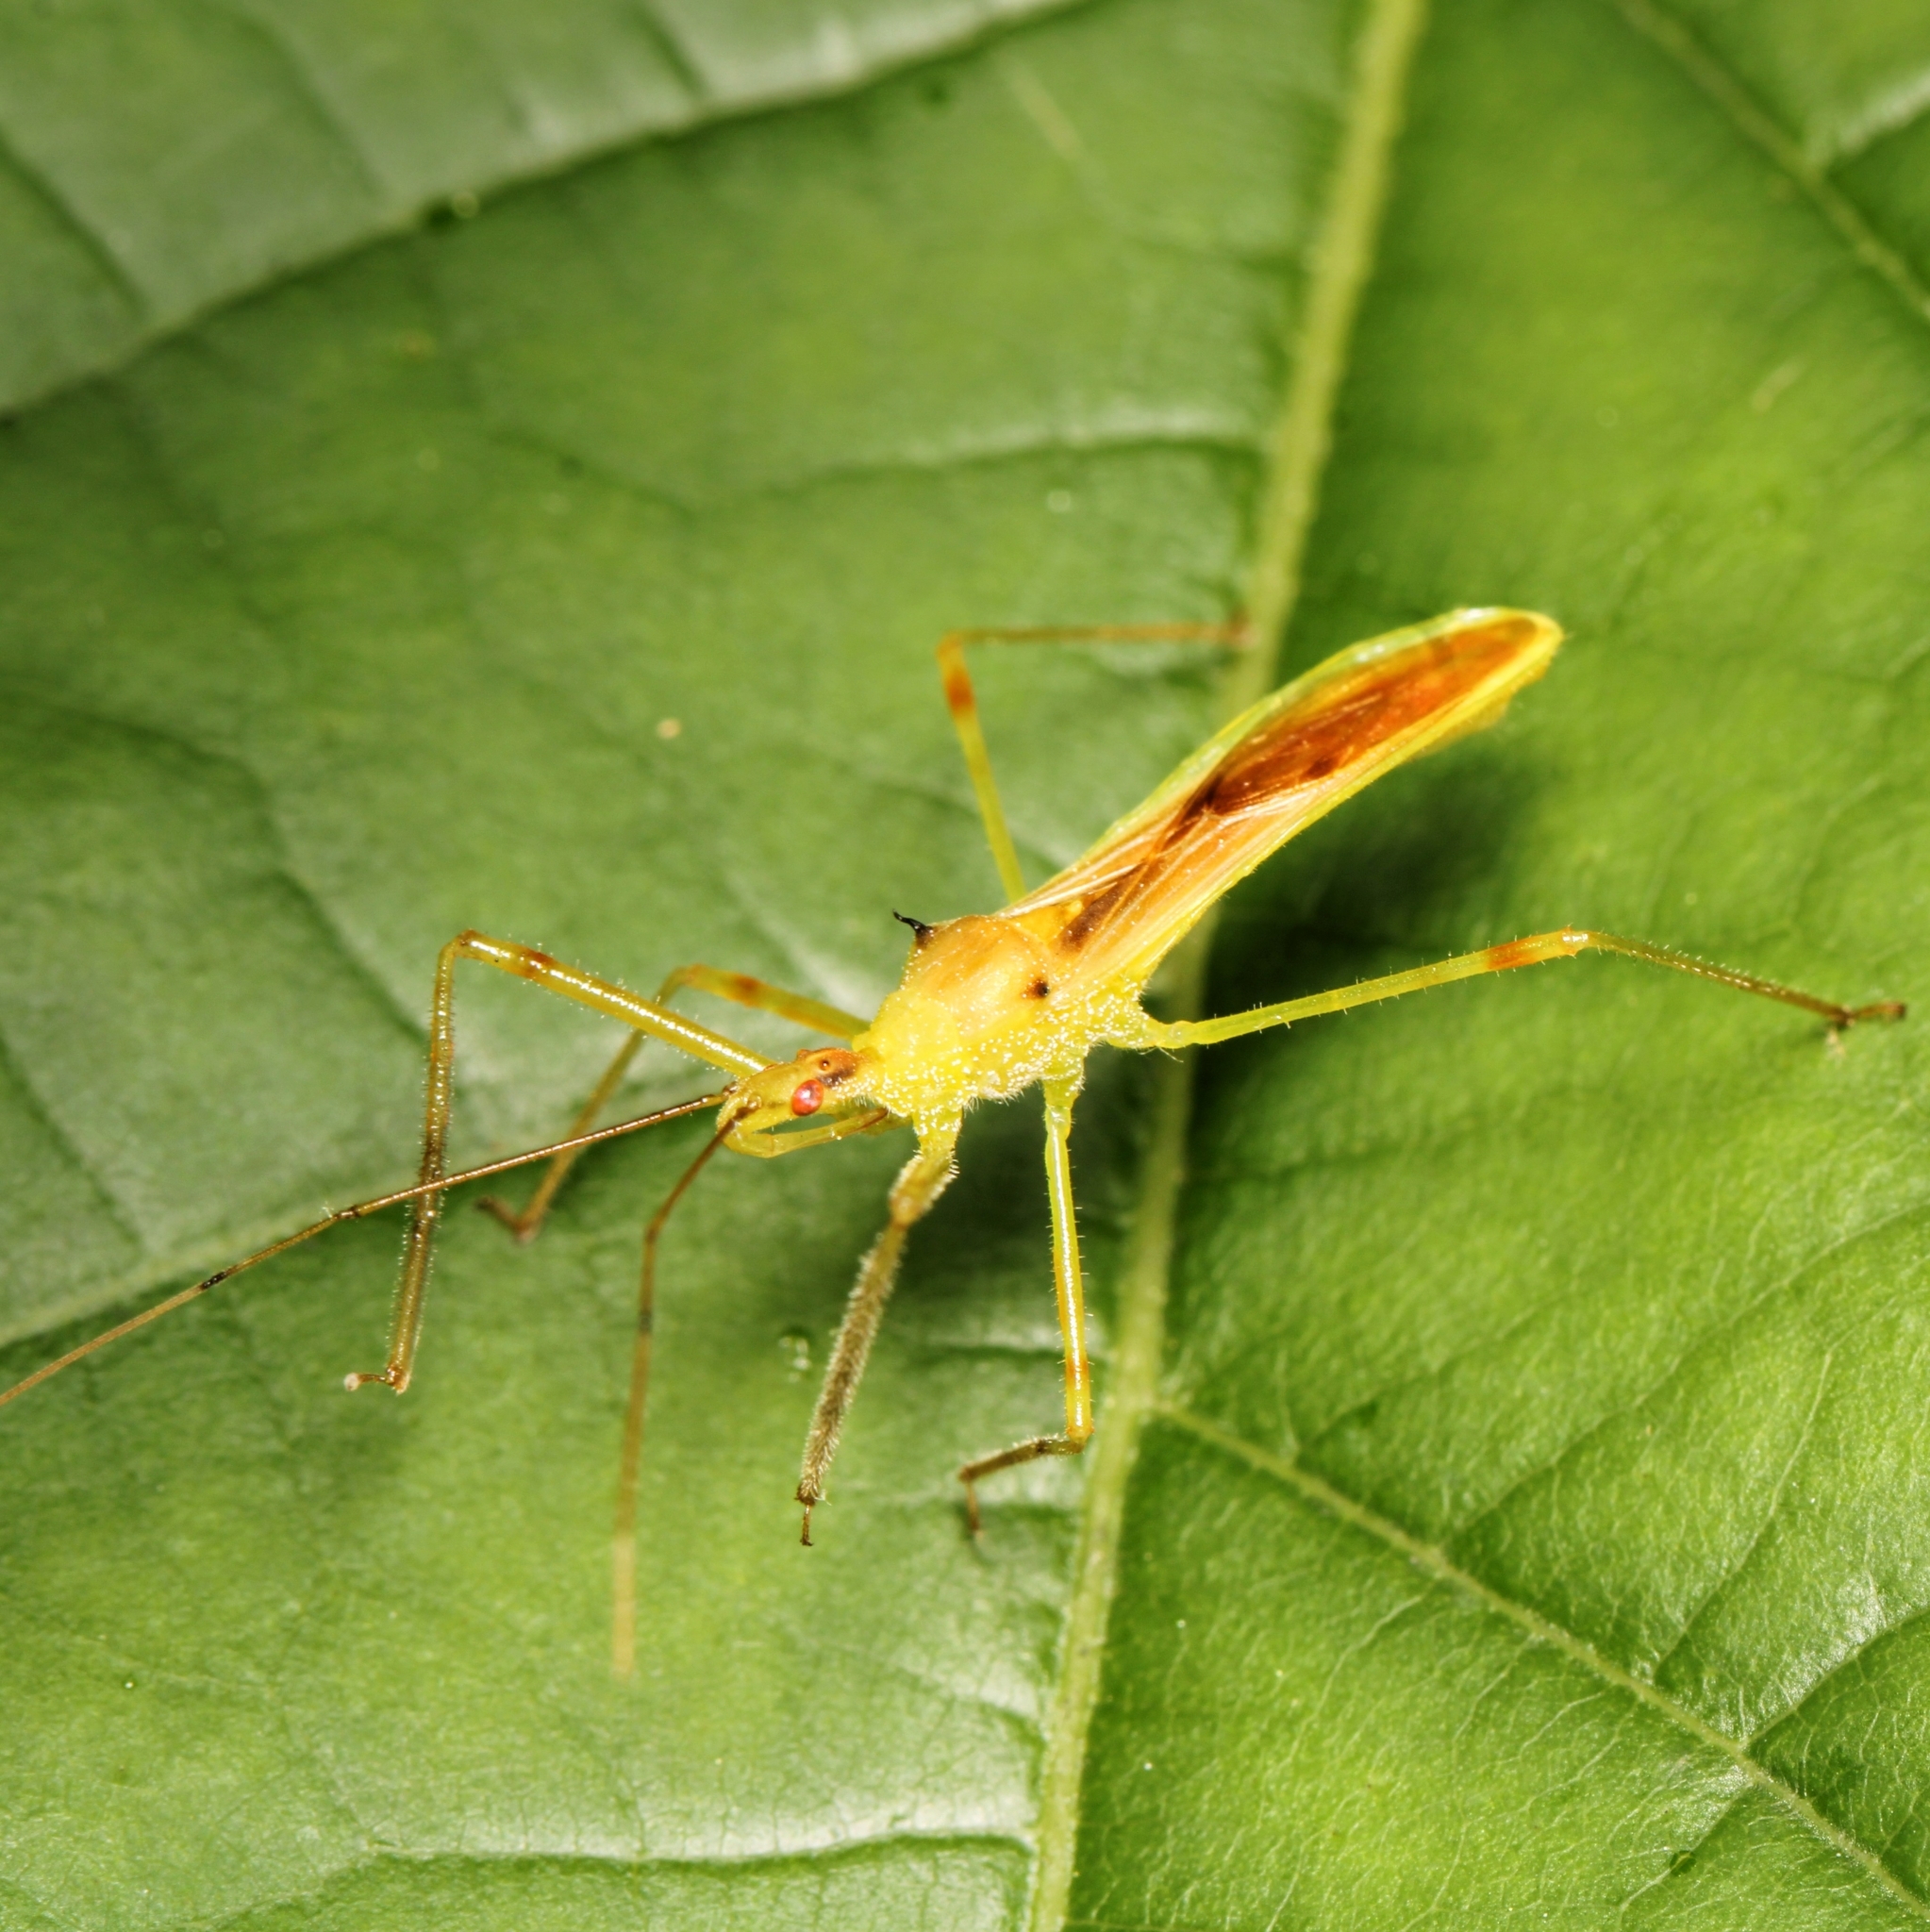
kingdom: Animalia
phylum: Arthropoda
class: Insecta
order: Hemiptera
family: Reduviidae
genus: Zelus
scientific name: Zelus luridus
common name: Pale green assassin bug
